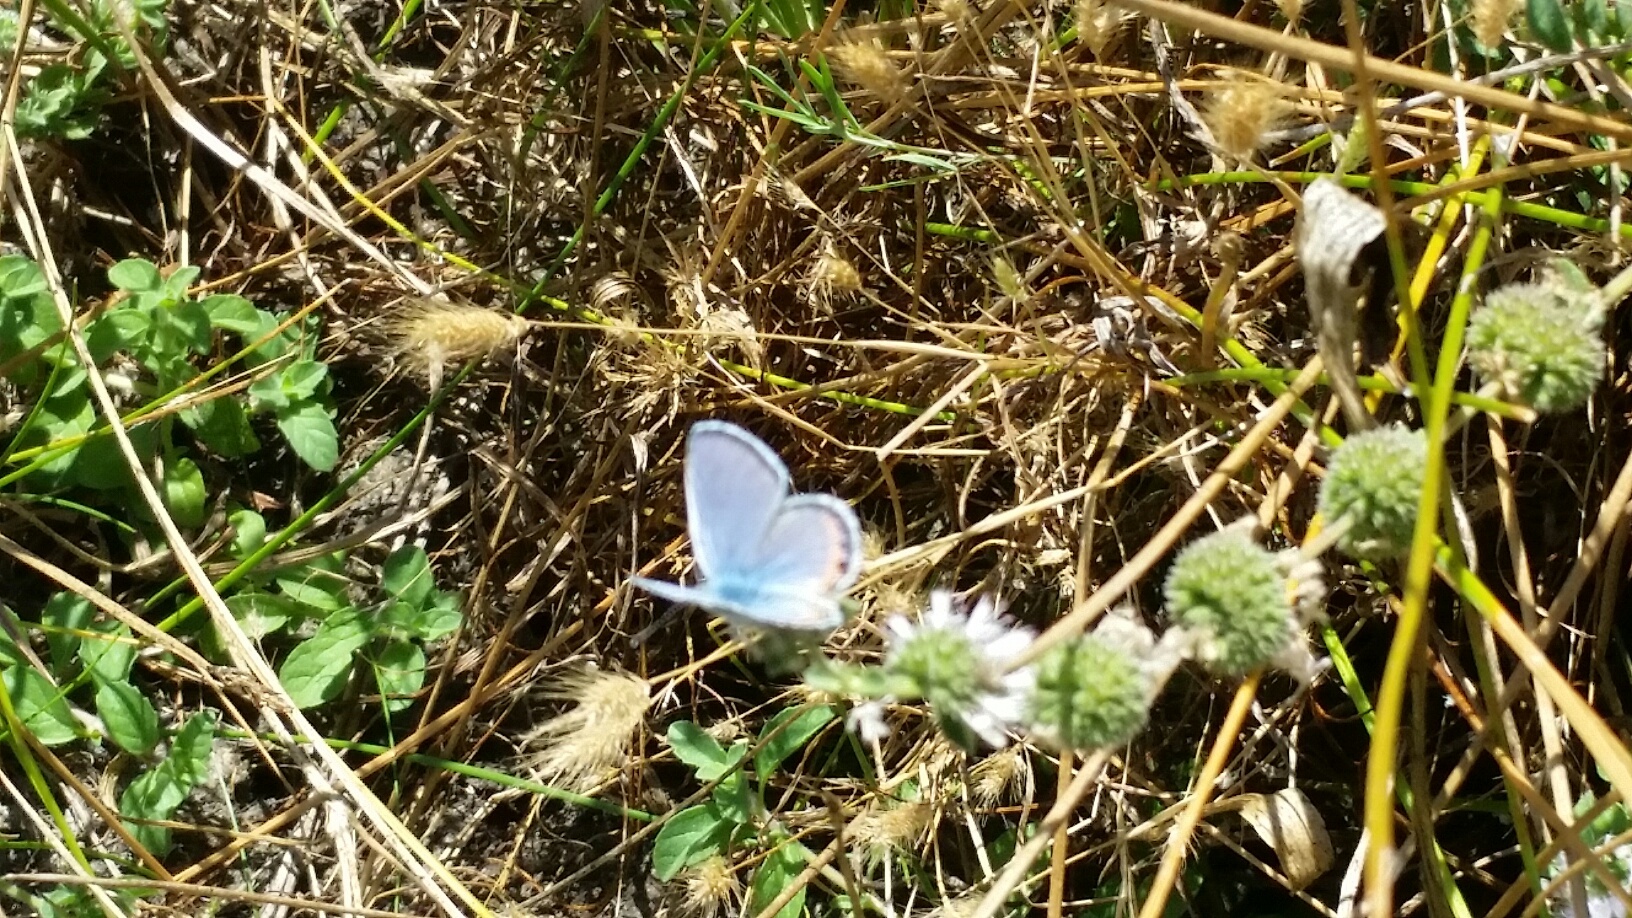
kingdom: Animalia
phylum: Arthropoda
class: Insecta
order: Lepidoptera
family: Lycaenidae
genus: Icaricia
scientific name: Icaricia acmon
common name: Acmon blue
